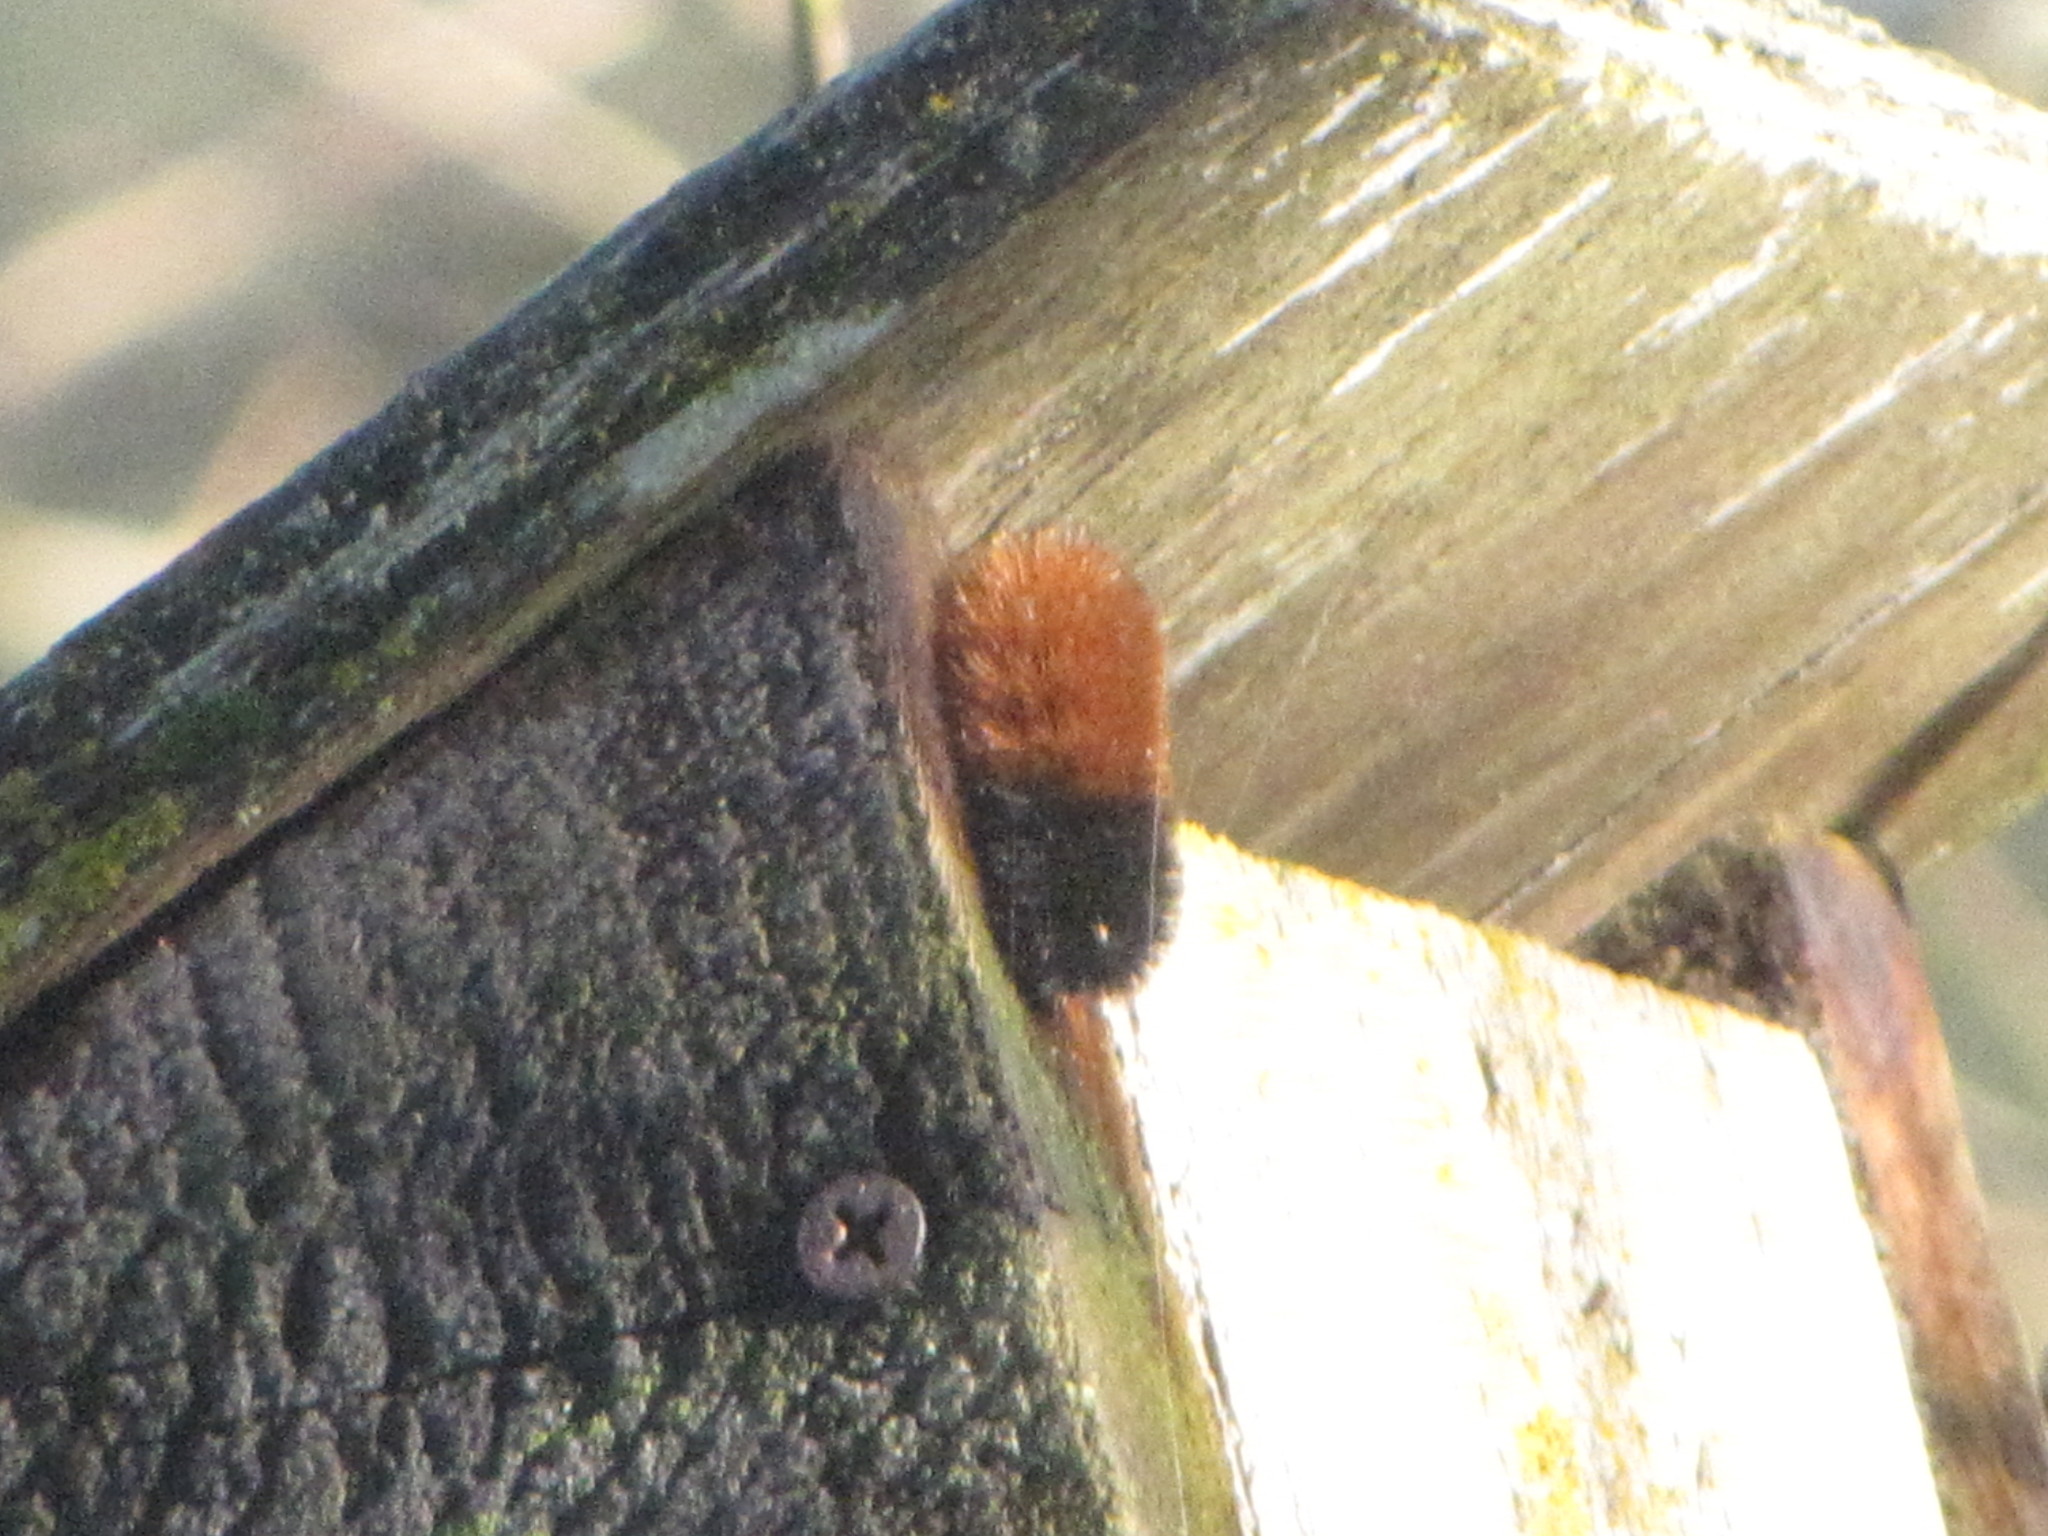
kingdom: Animalia
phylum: Arthropoda
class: Insecta
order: Lepidoptera
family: Erebidae
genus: Pyrrharctia
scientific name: Pyrrharctia isabella
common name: Isabella tiger moth
